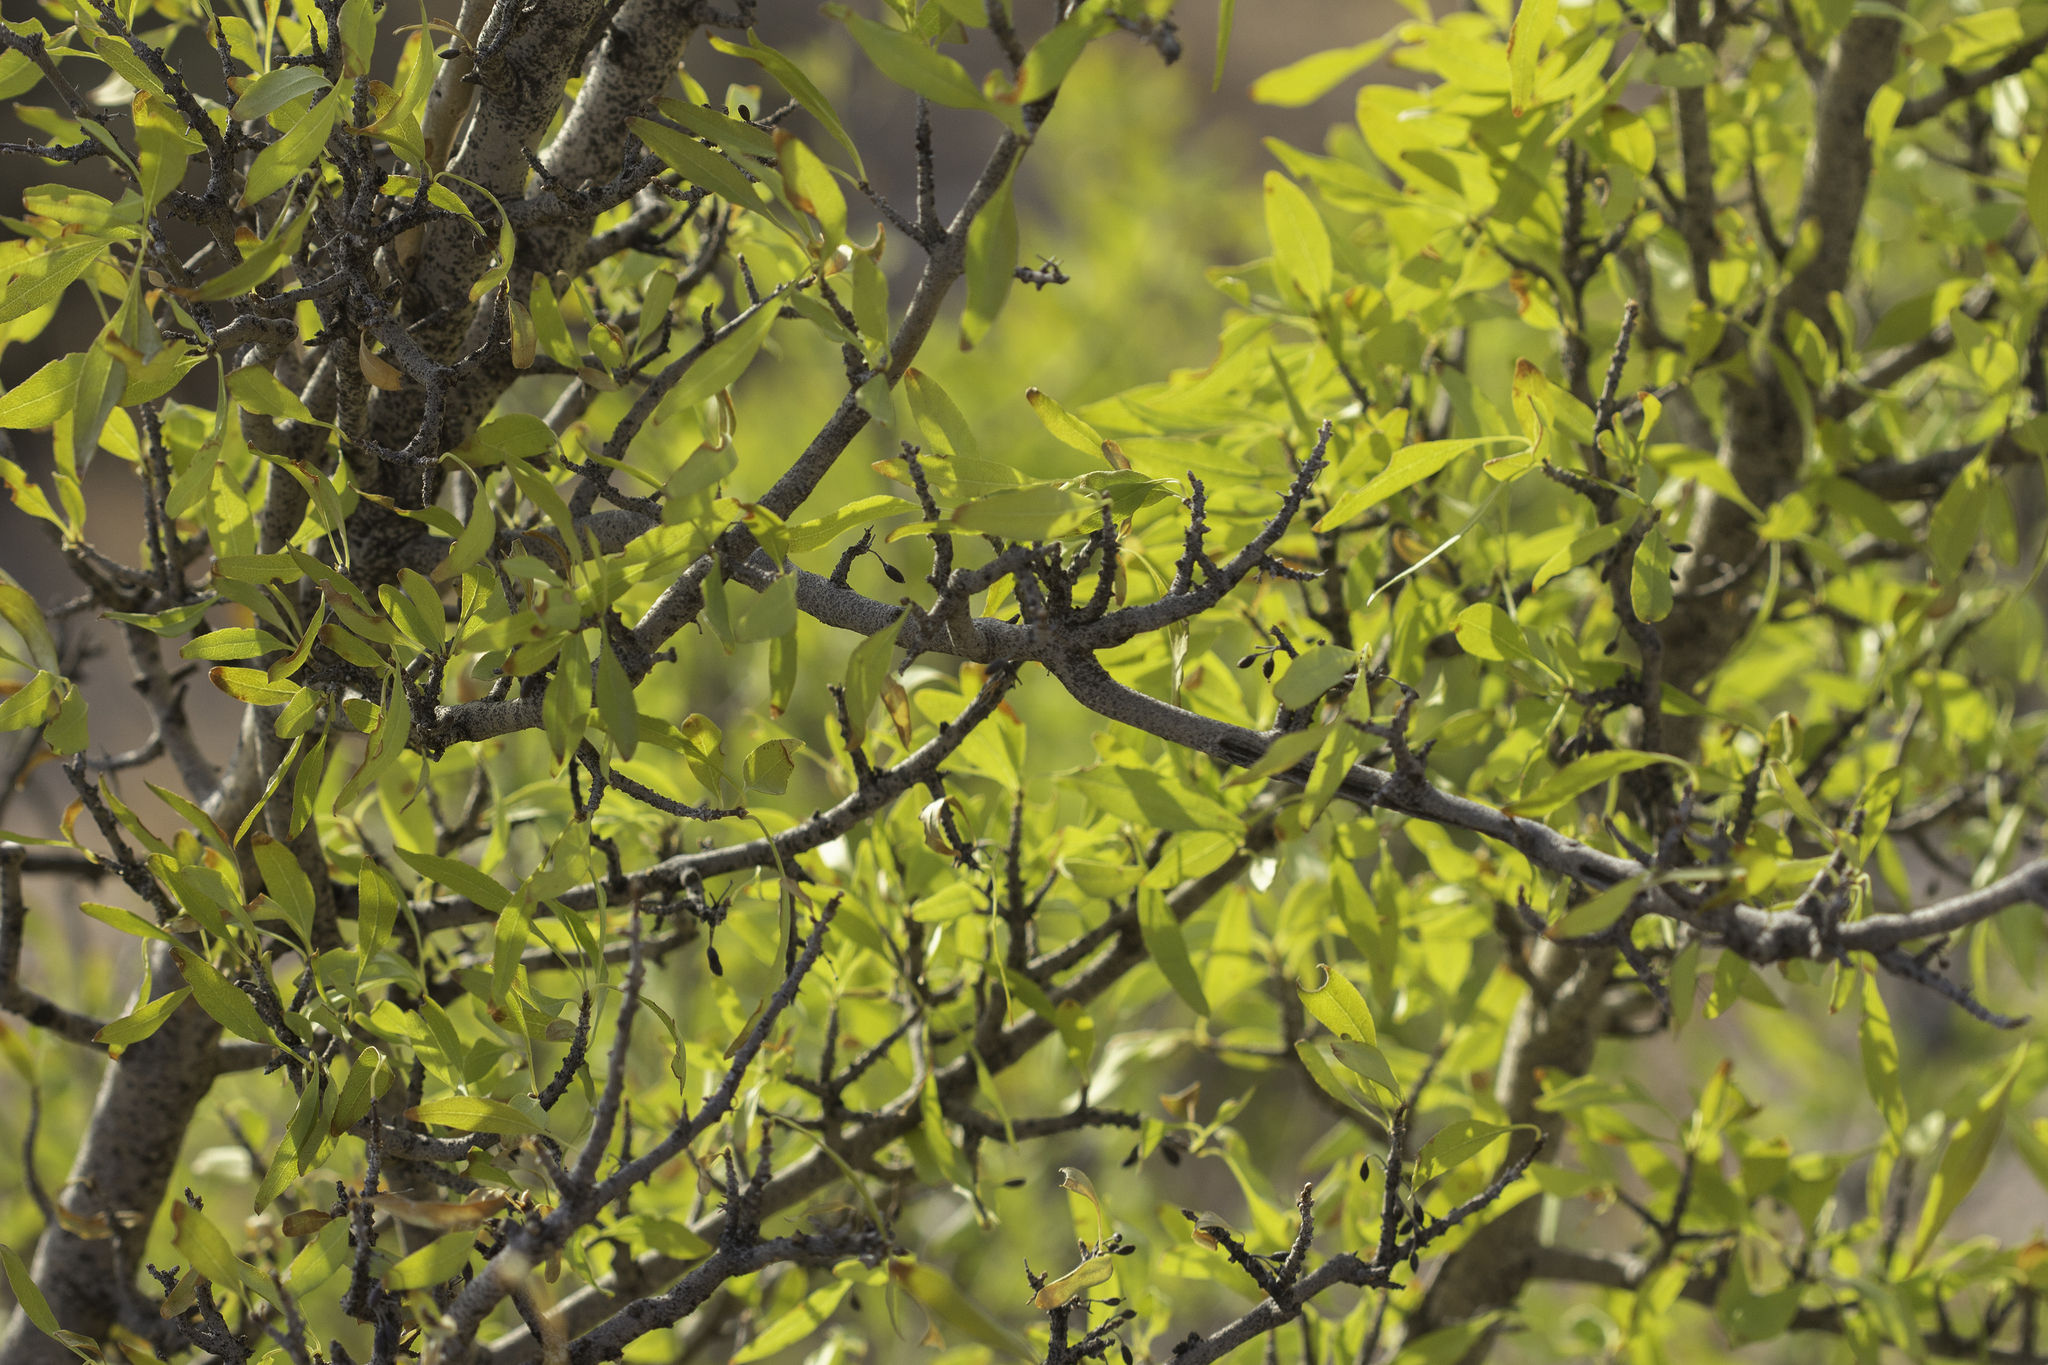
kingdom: Plantae
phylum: Tracheophyta
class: Magnoliopsida
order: Lamiales
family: Oleaceae
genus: Forestiera
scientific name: Forestiera pubescens
